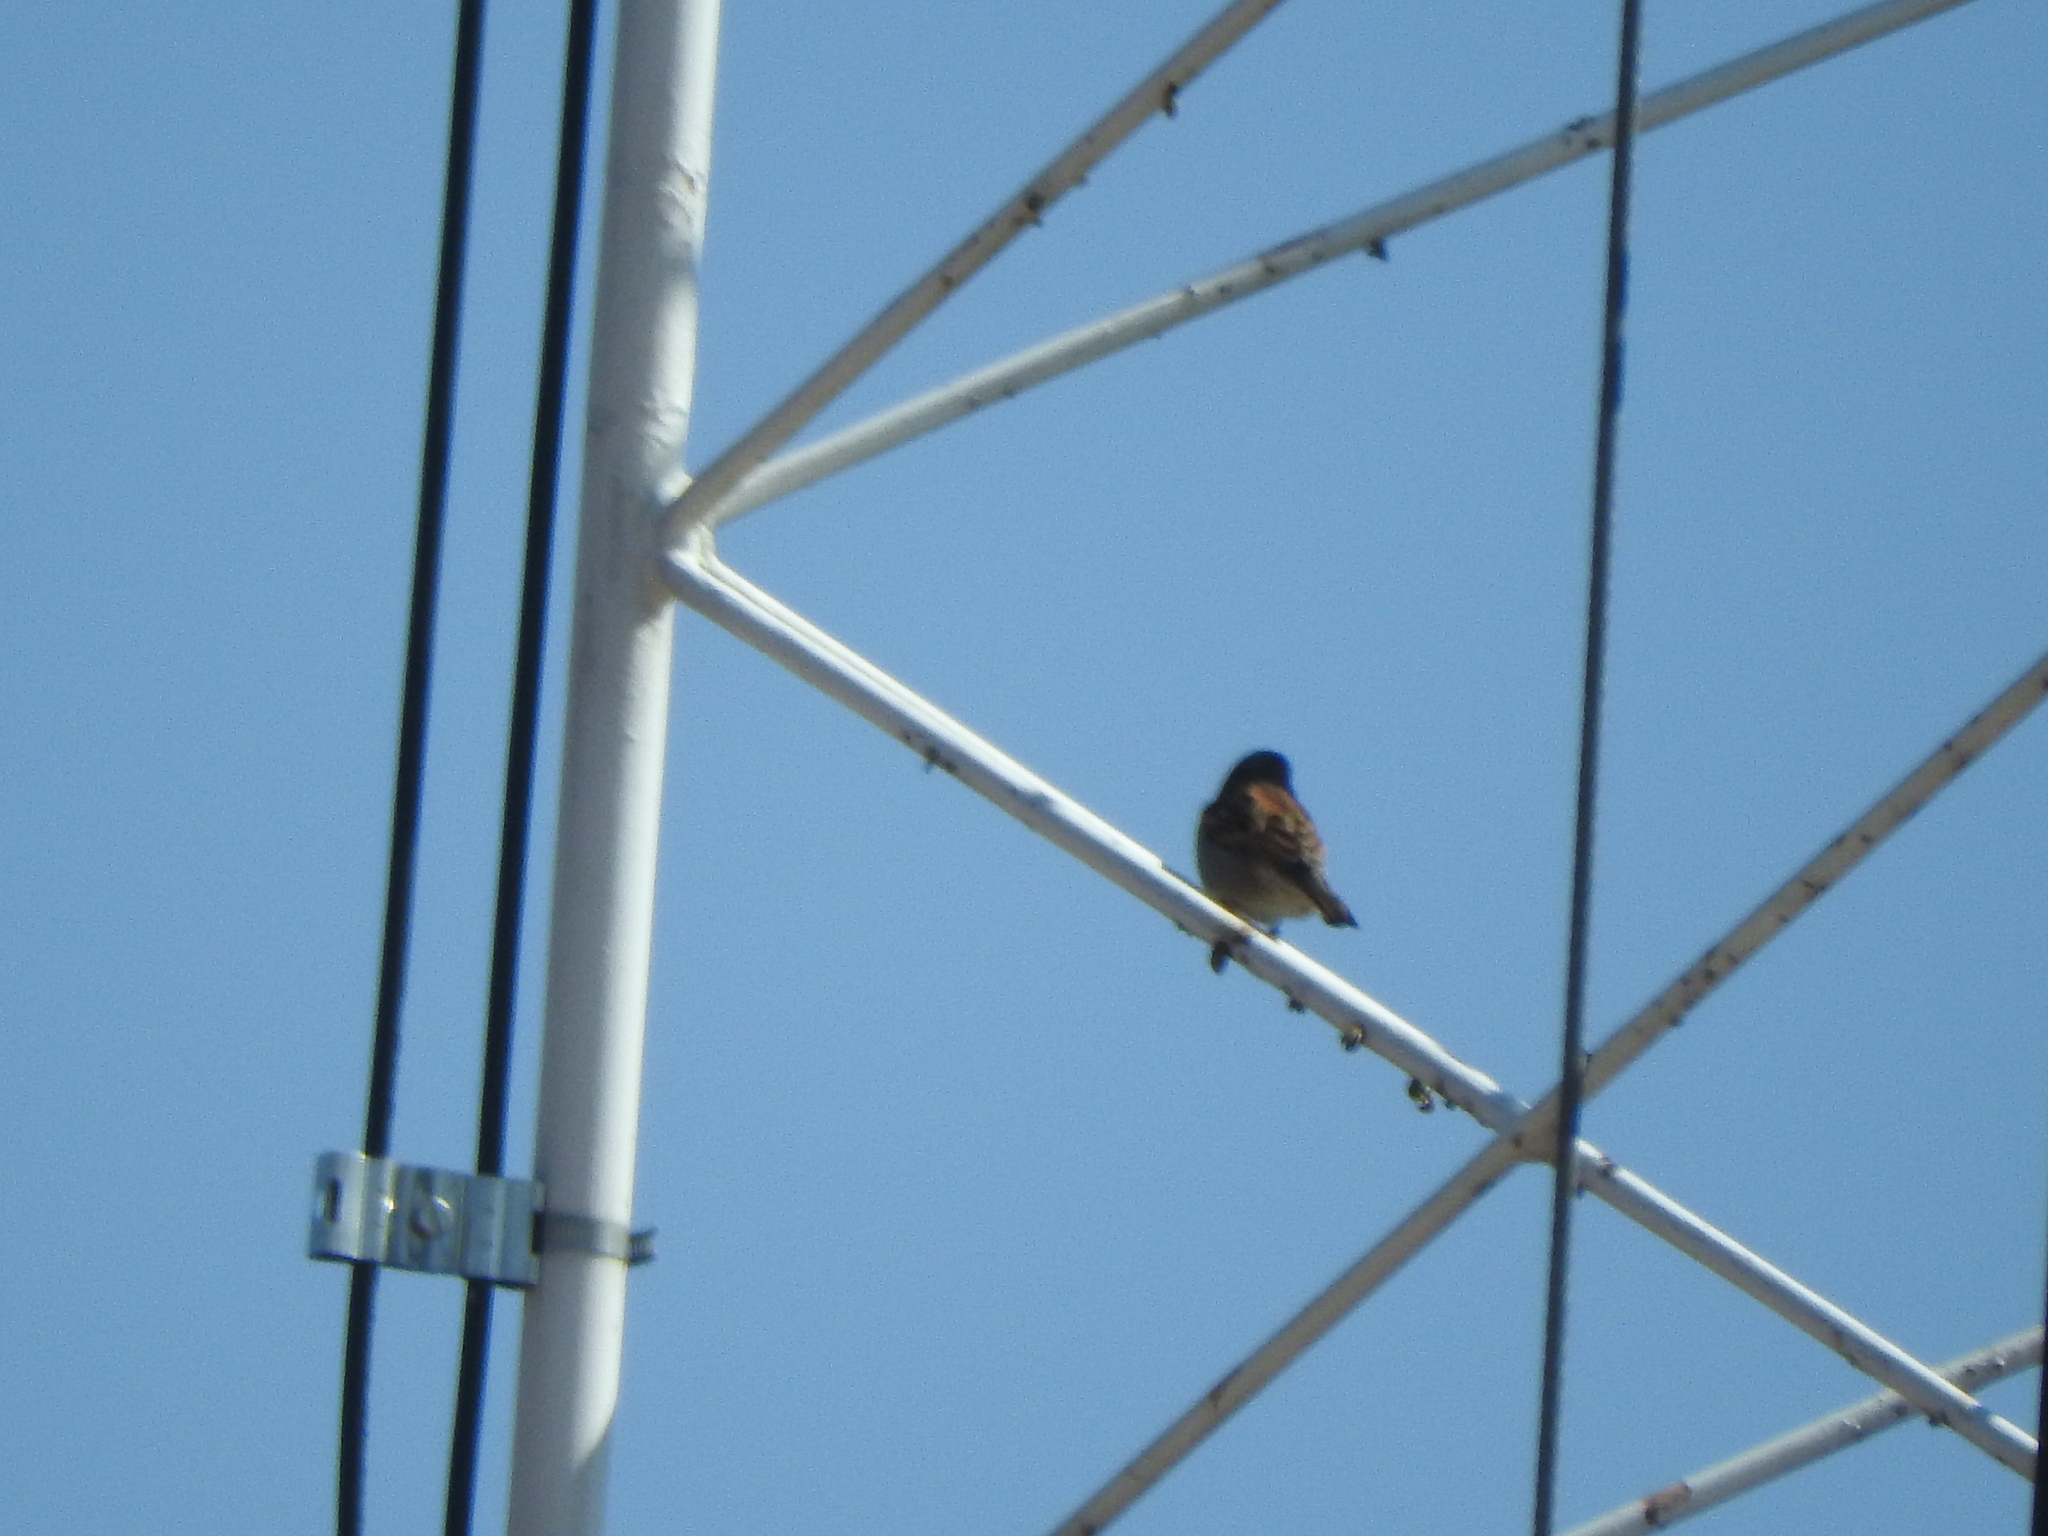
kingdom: Animalia
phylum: Chordata
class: Aves
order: Passeriformes
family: Passeridae
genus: Passer
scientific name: Passer domesticus
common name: House sparrow
